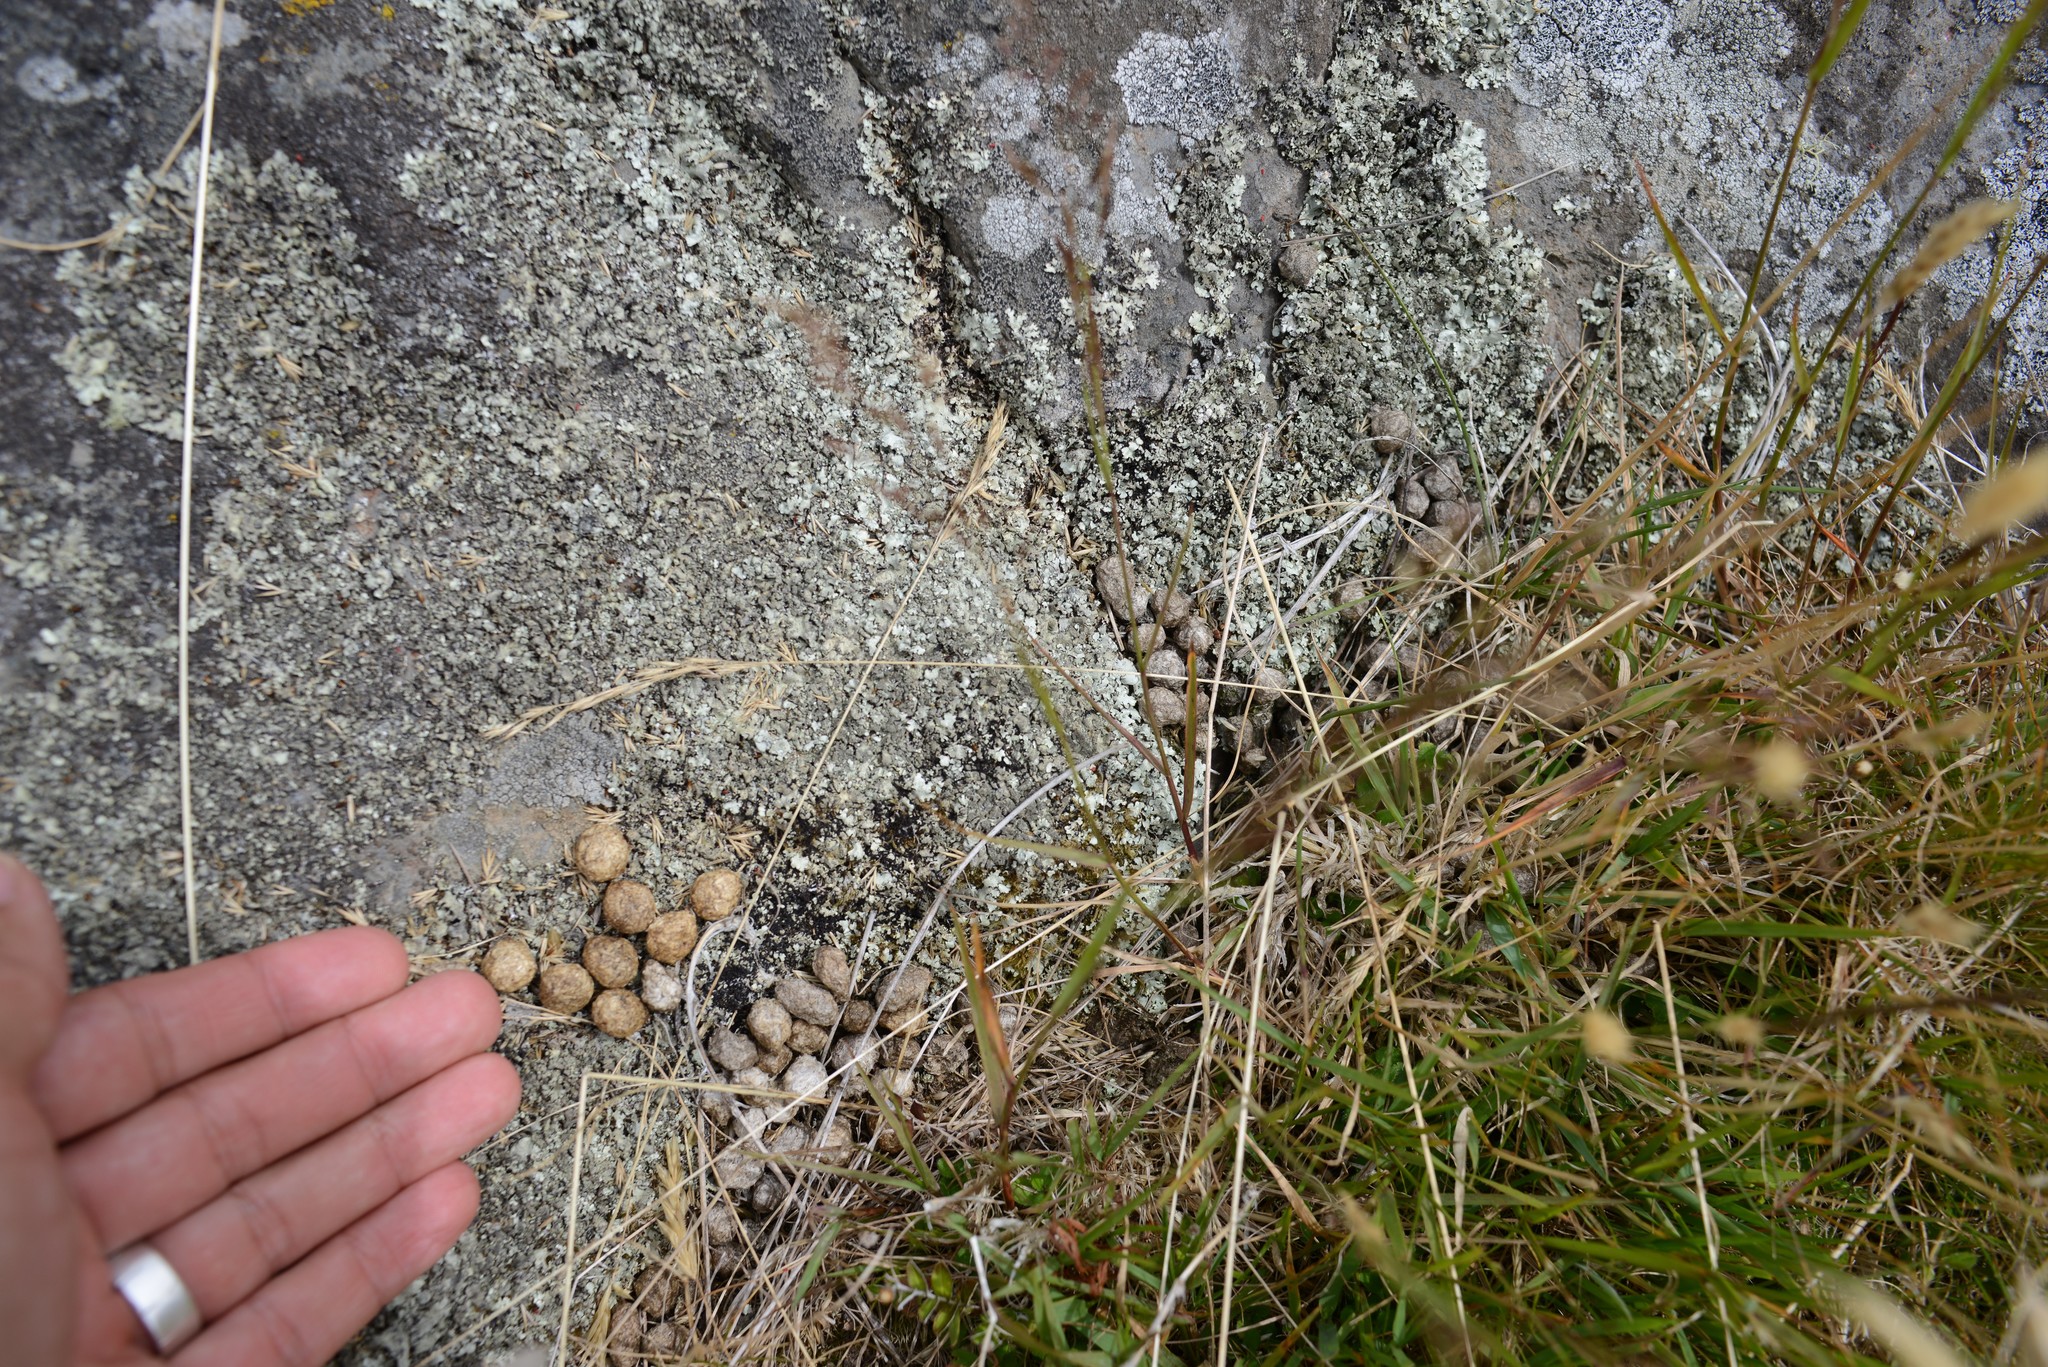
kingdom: Animalia
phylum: Chordata
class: Mammalia
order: Lagomorpha
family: Leporidae
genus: Oryctolagus
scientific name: Oryctolagus cuniculus
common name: European rabbit
